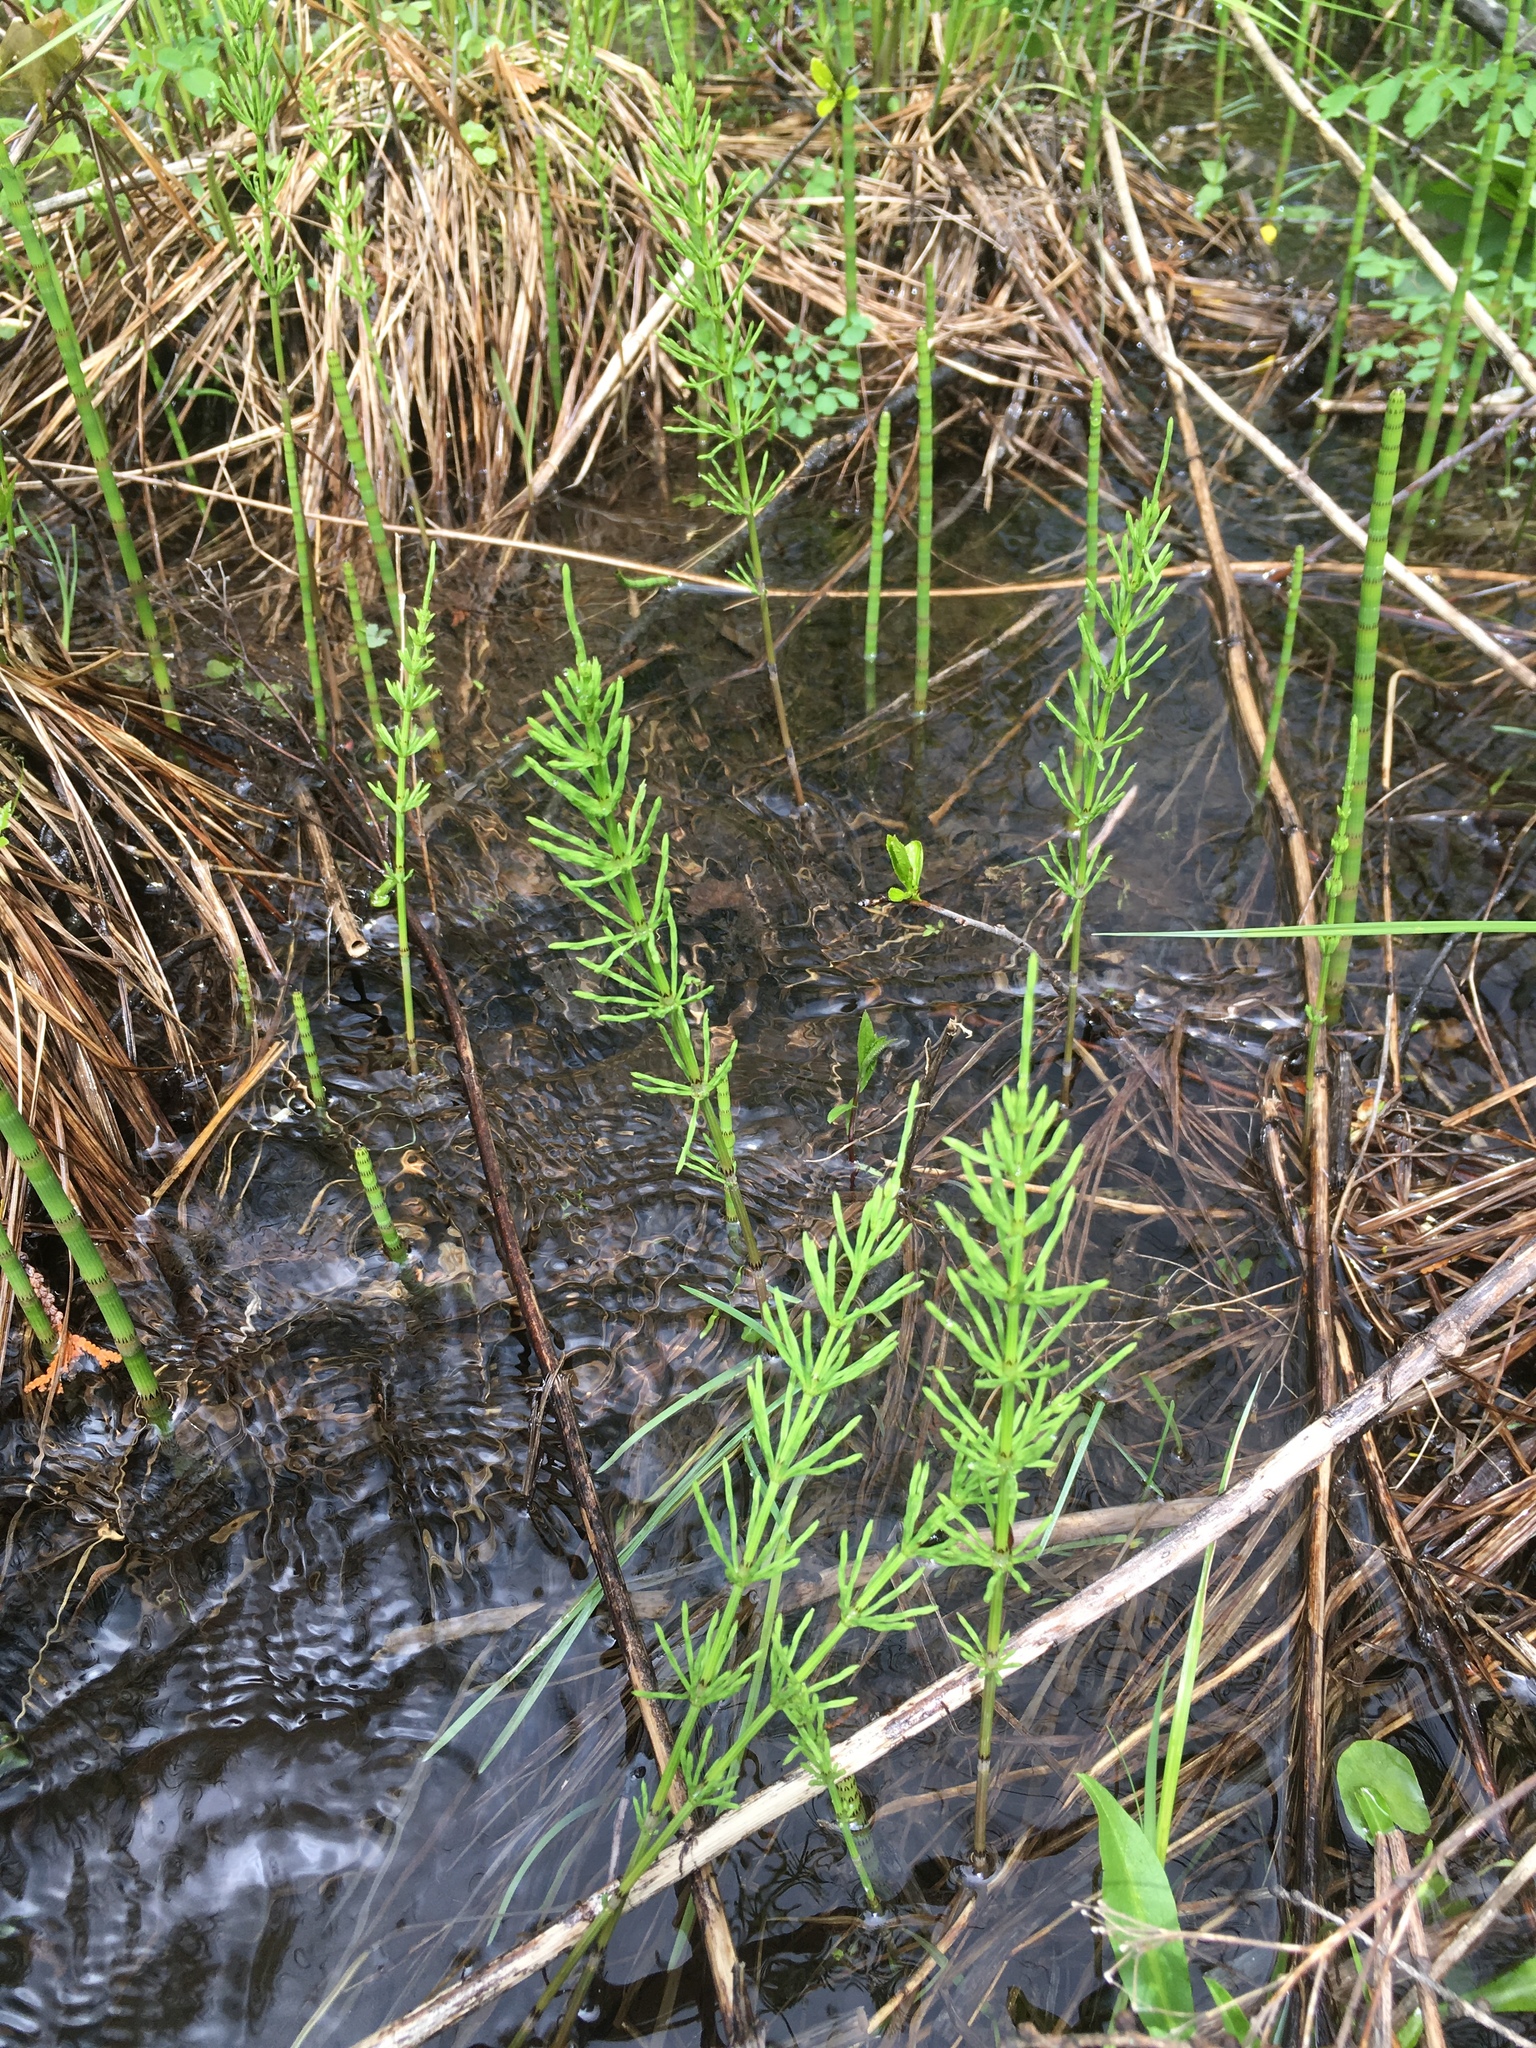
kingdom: Plantae
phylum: Tracheophyta
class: Polypodiopsida
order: Equisetales
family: Equisetaceae
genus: Equisetum
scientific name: Equisetum fluviatile
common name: Water horsetail
